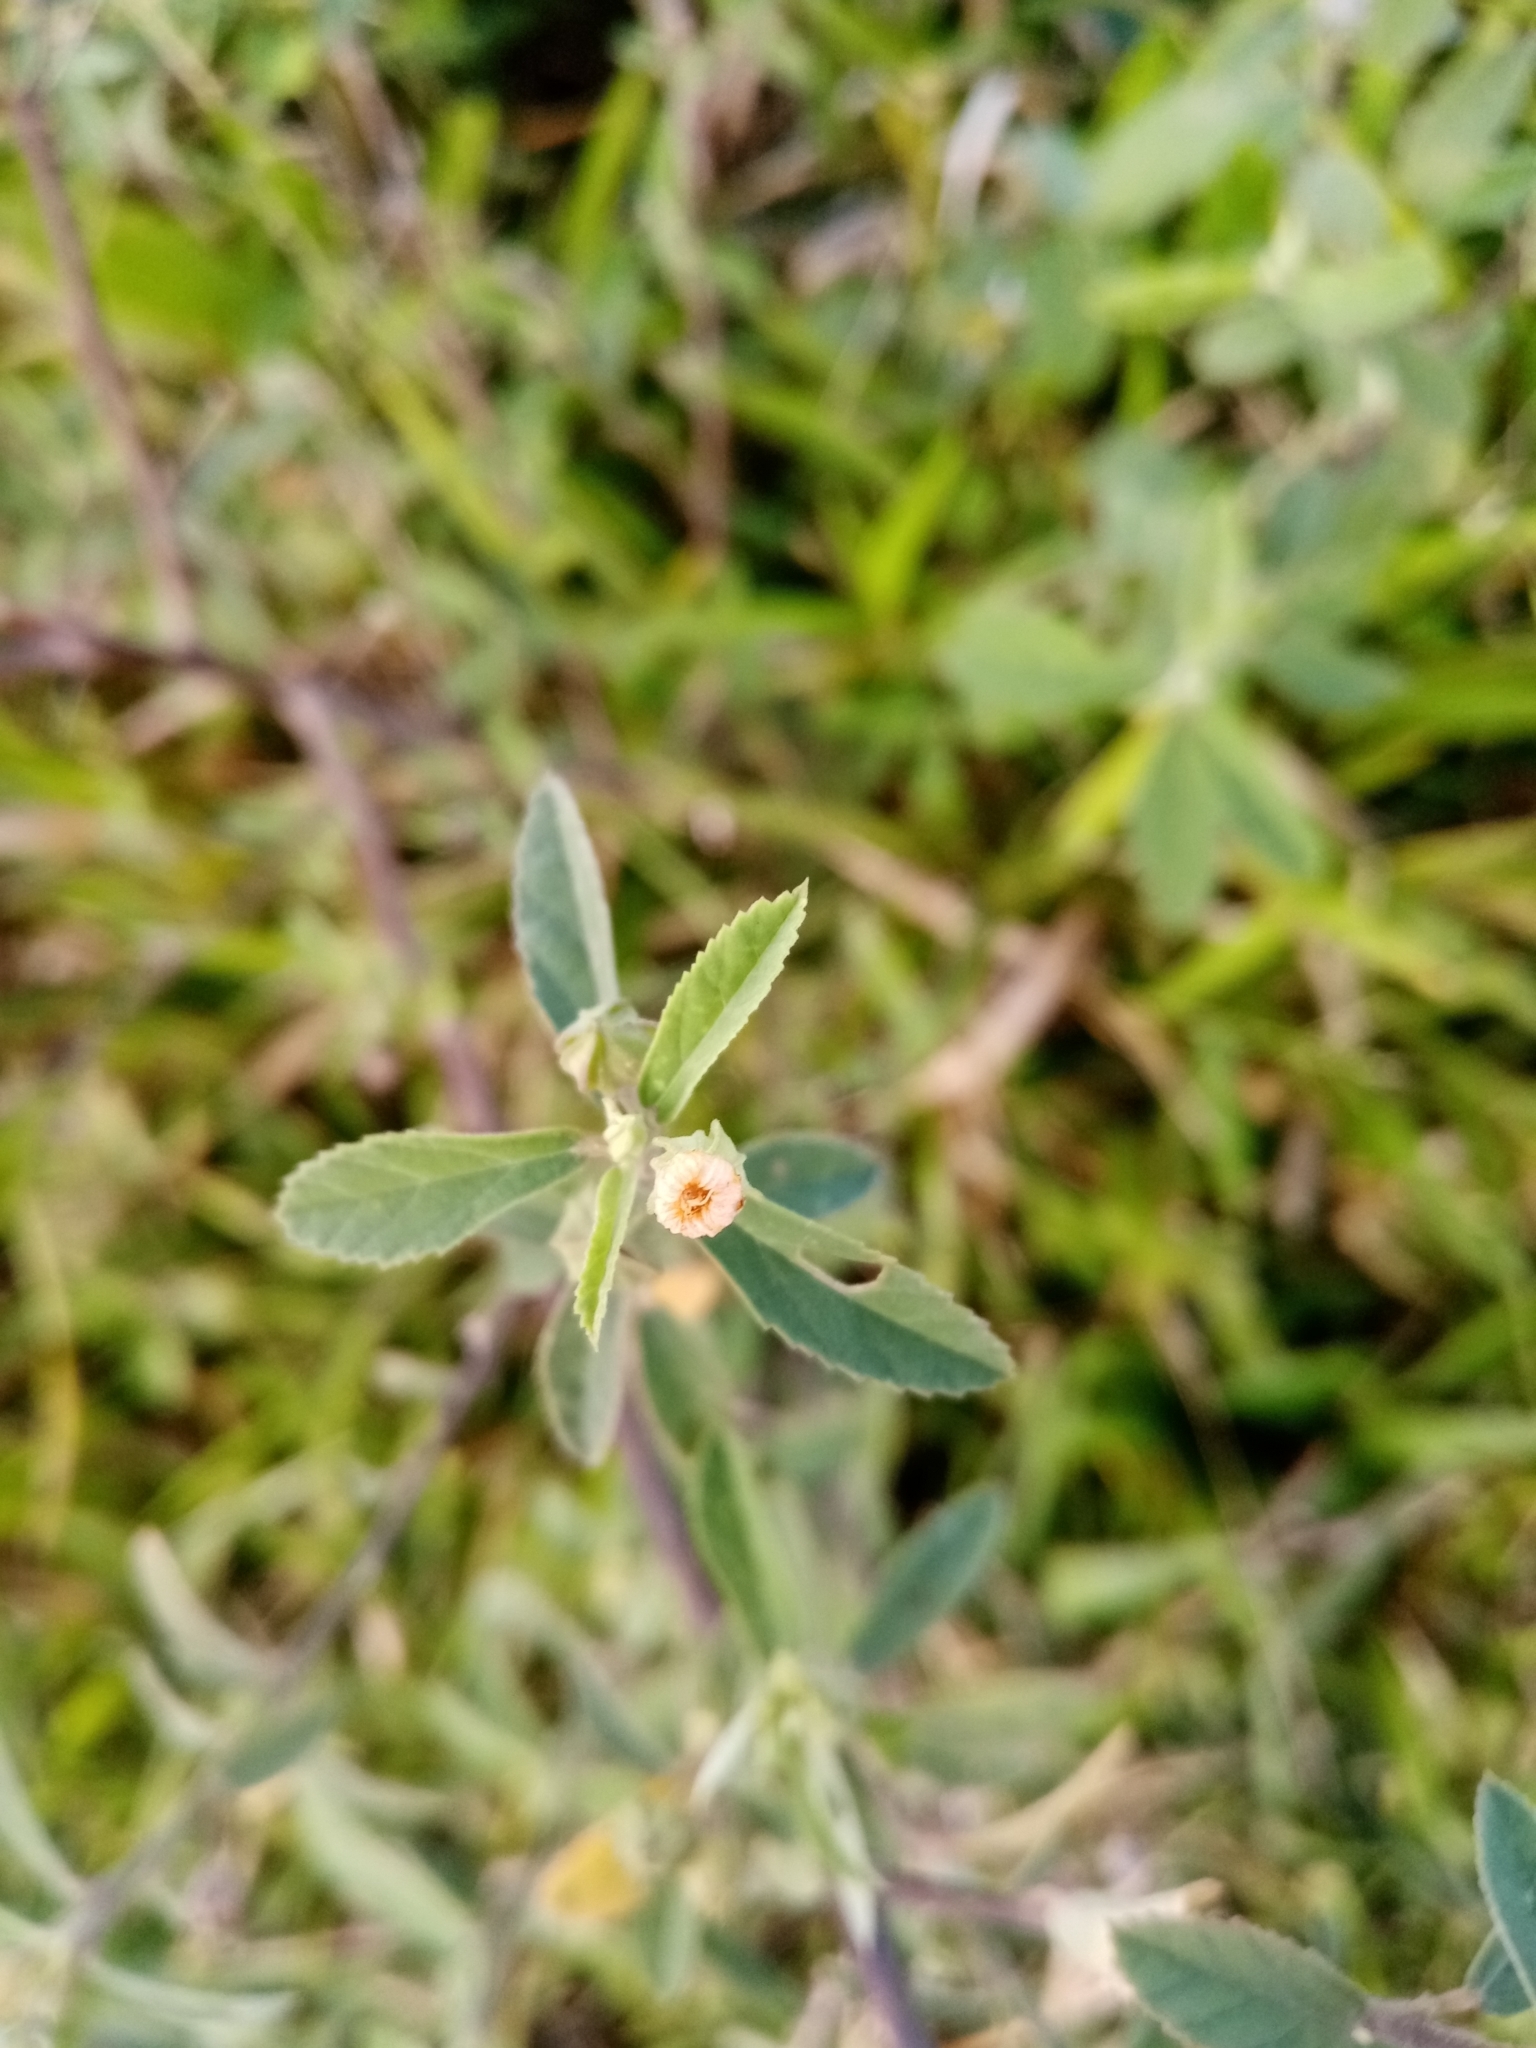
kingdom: Plantae
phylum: Tracheophyta
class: Magnoliopsida
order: Malvales
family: Malvaceae
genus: Sida
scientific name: Sida rhombifolia
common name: Queensland-hemp
